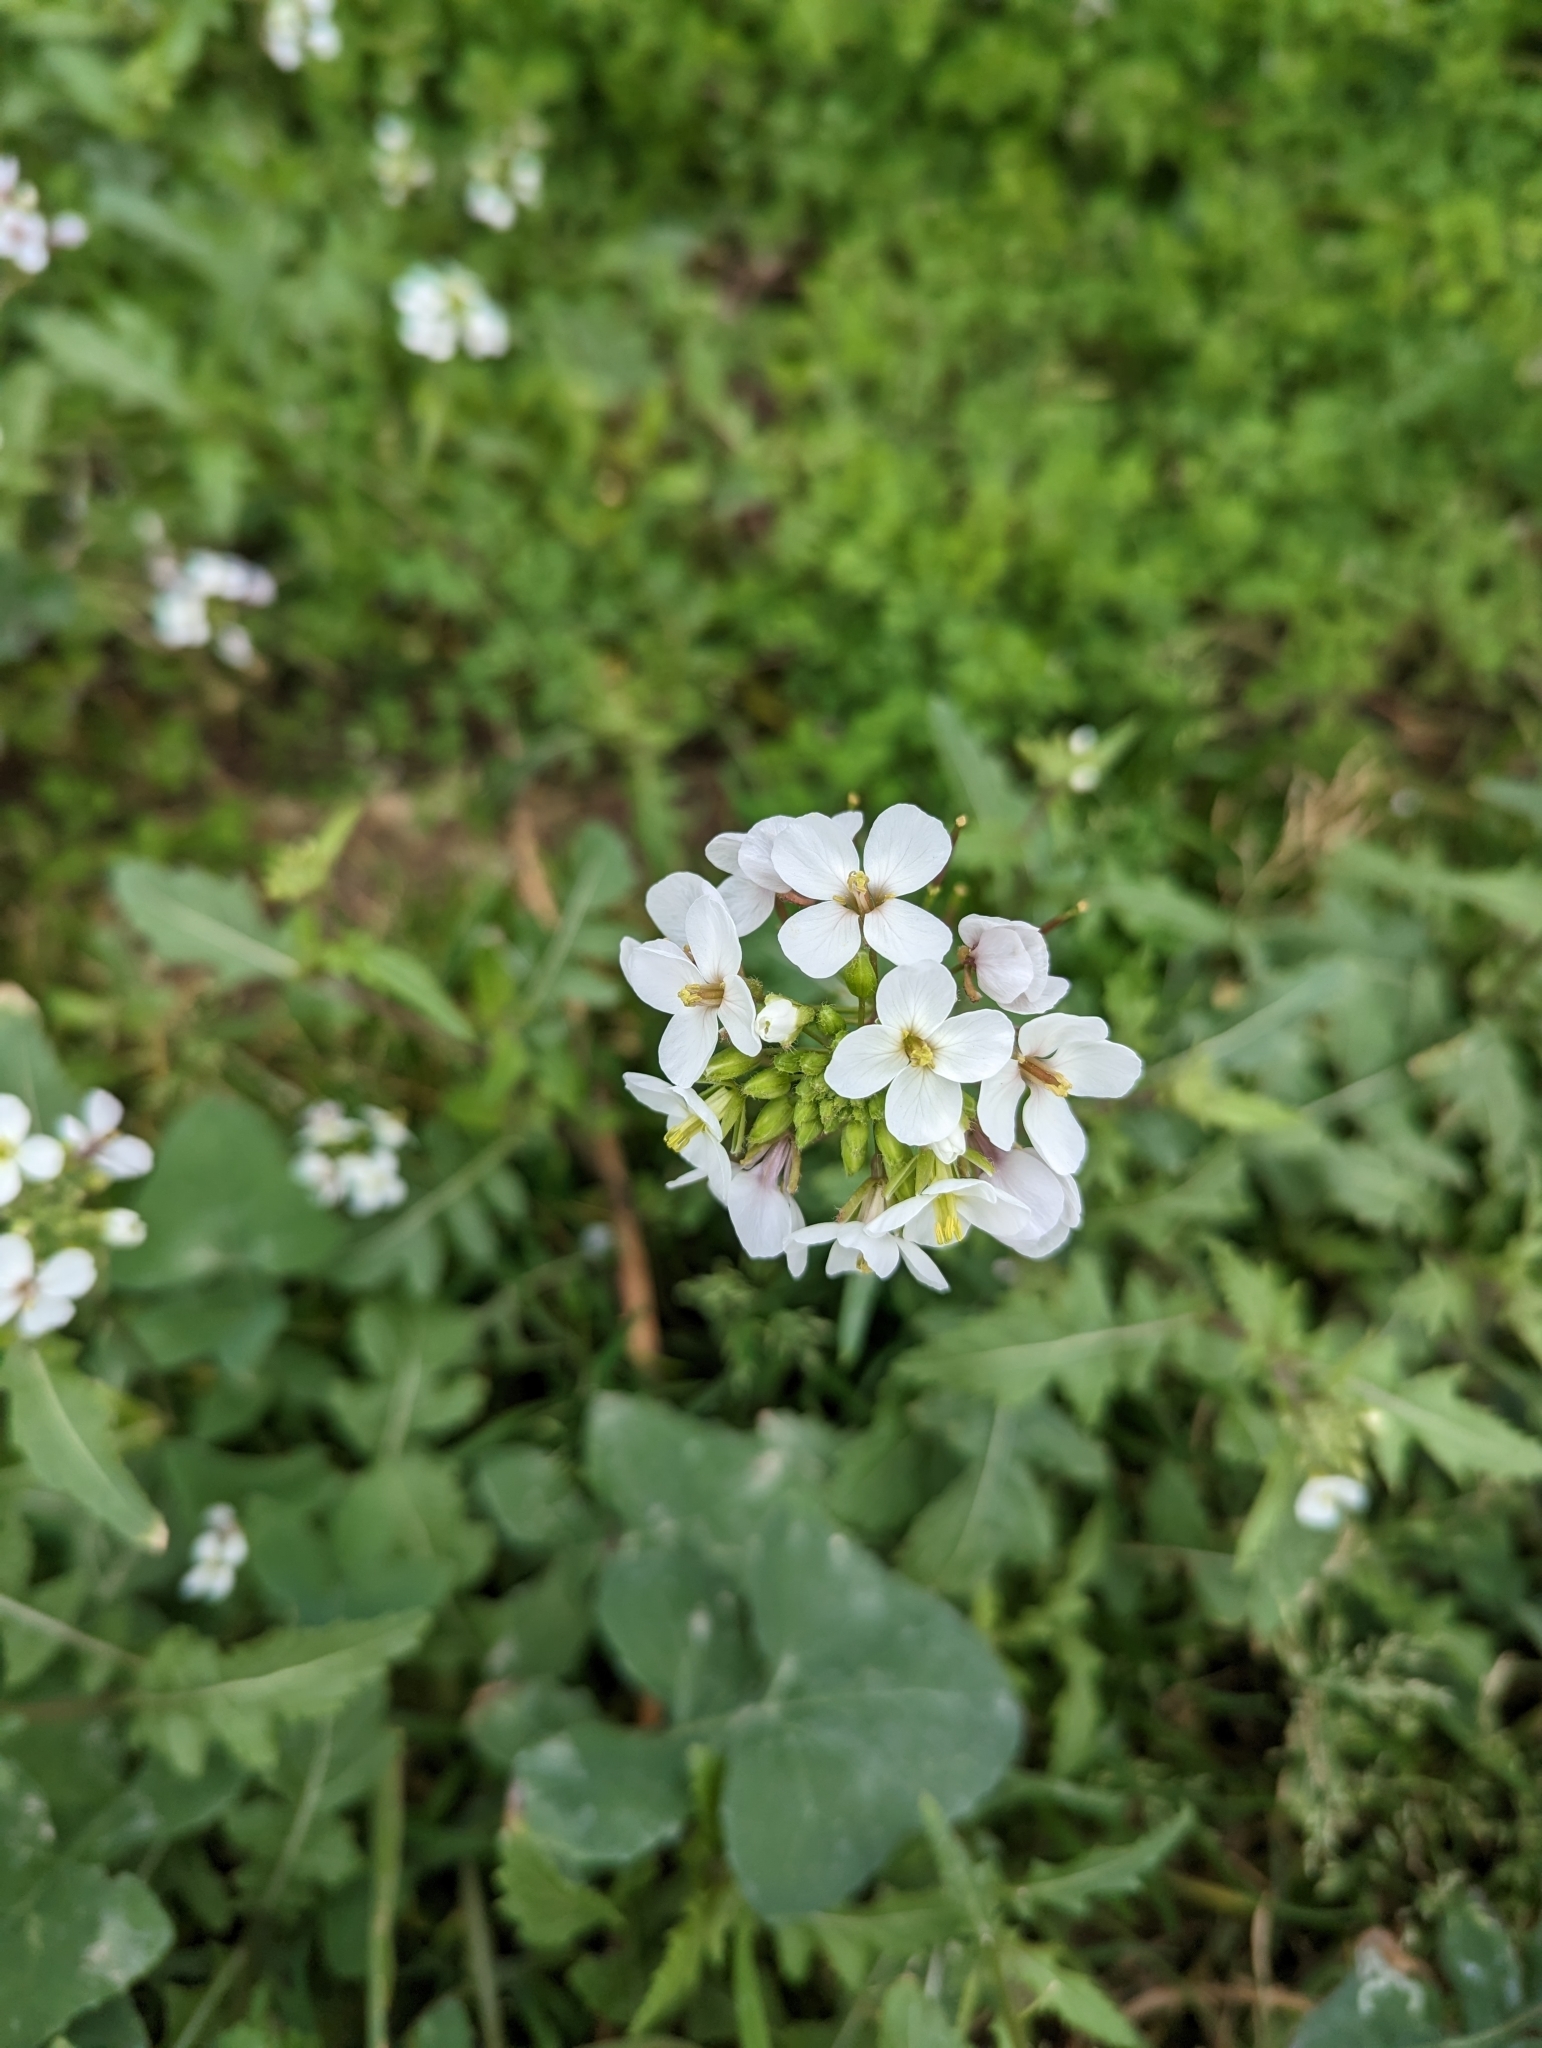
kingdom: Plantae
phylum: Tracheophyta
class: Magnoliopsida
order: Brassicales
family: Brassicaceae
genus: Diplotaxis
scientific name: Diplotaxis erucoides
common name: White rocket
